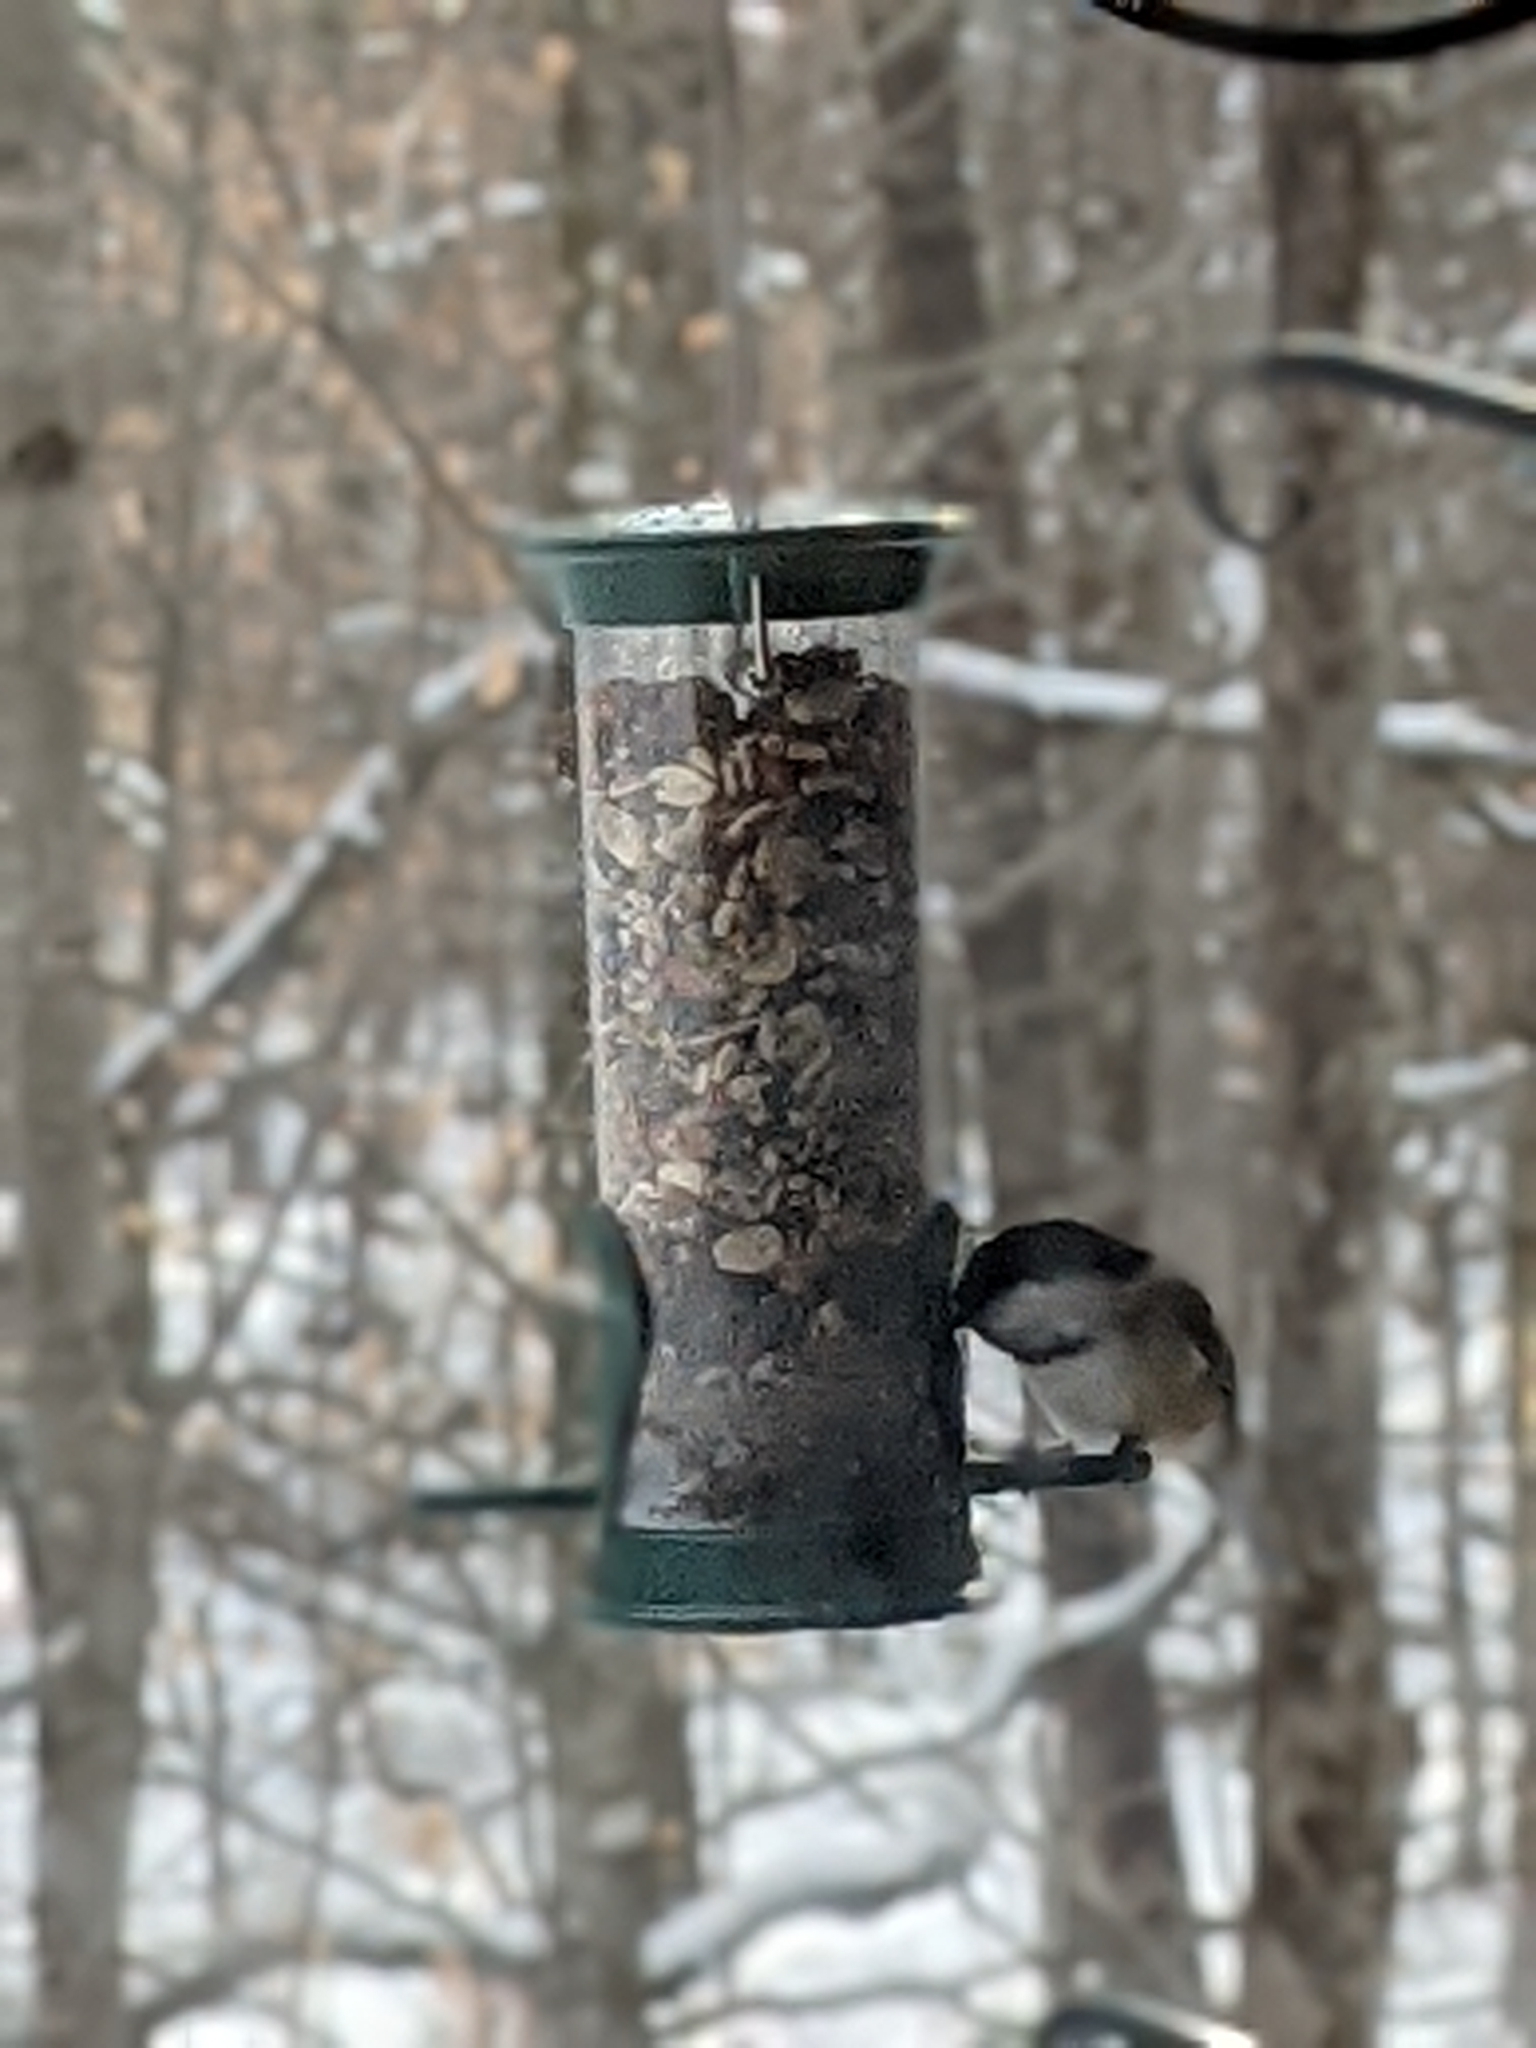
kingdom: Animalia
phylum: Chordata
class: Aves
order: Passeriformes
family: Paridae
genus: Poecile
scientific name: Poecile atricapillus
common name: Black-capped chickadee
